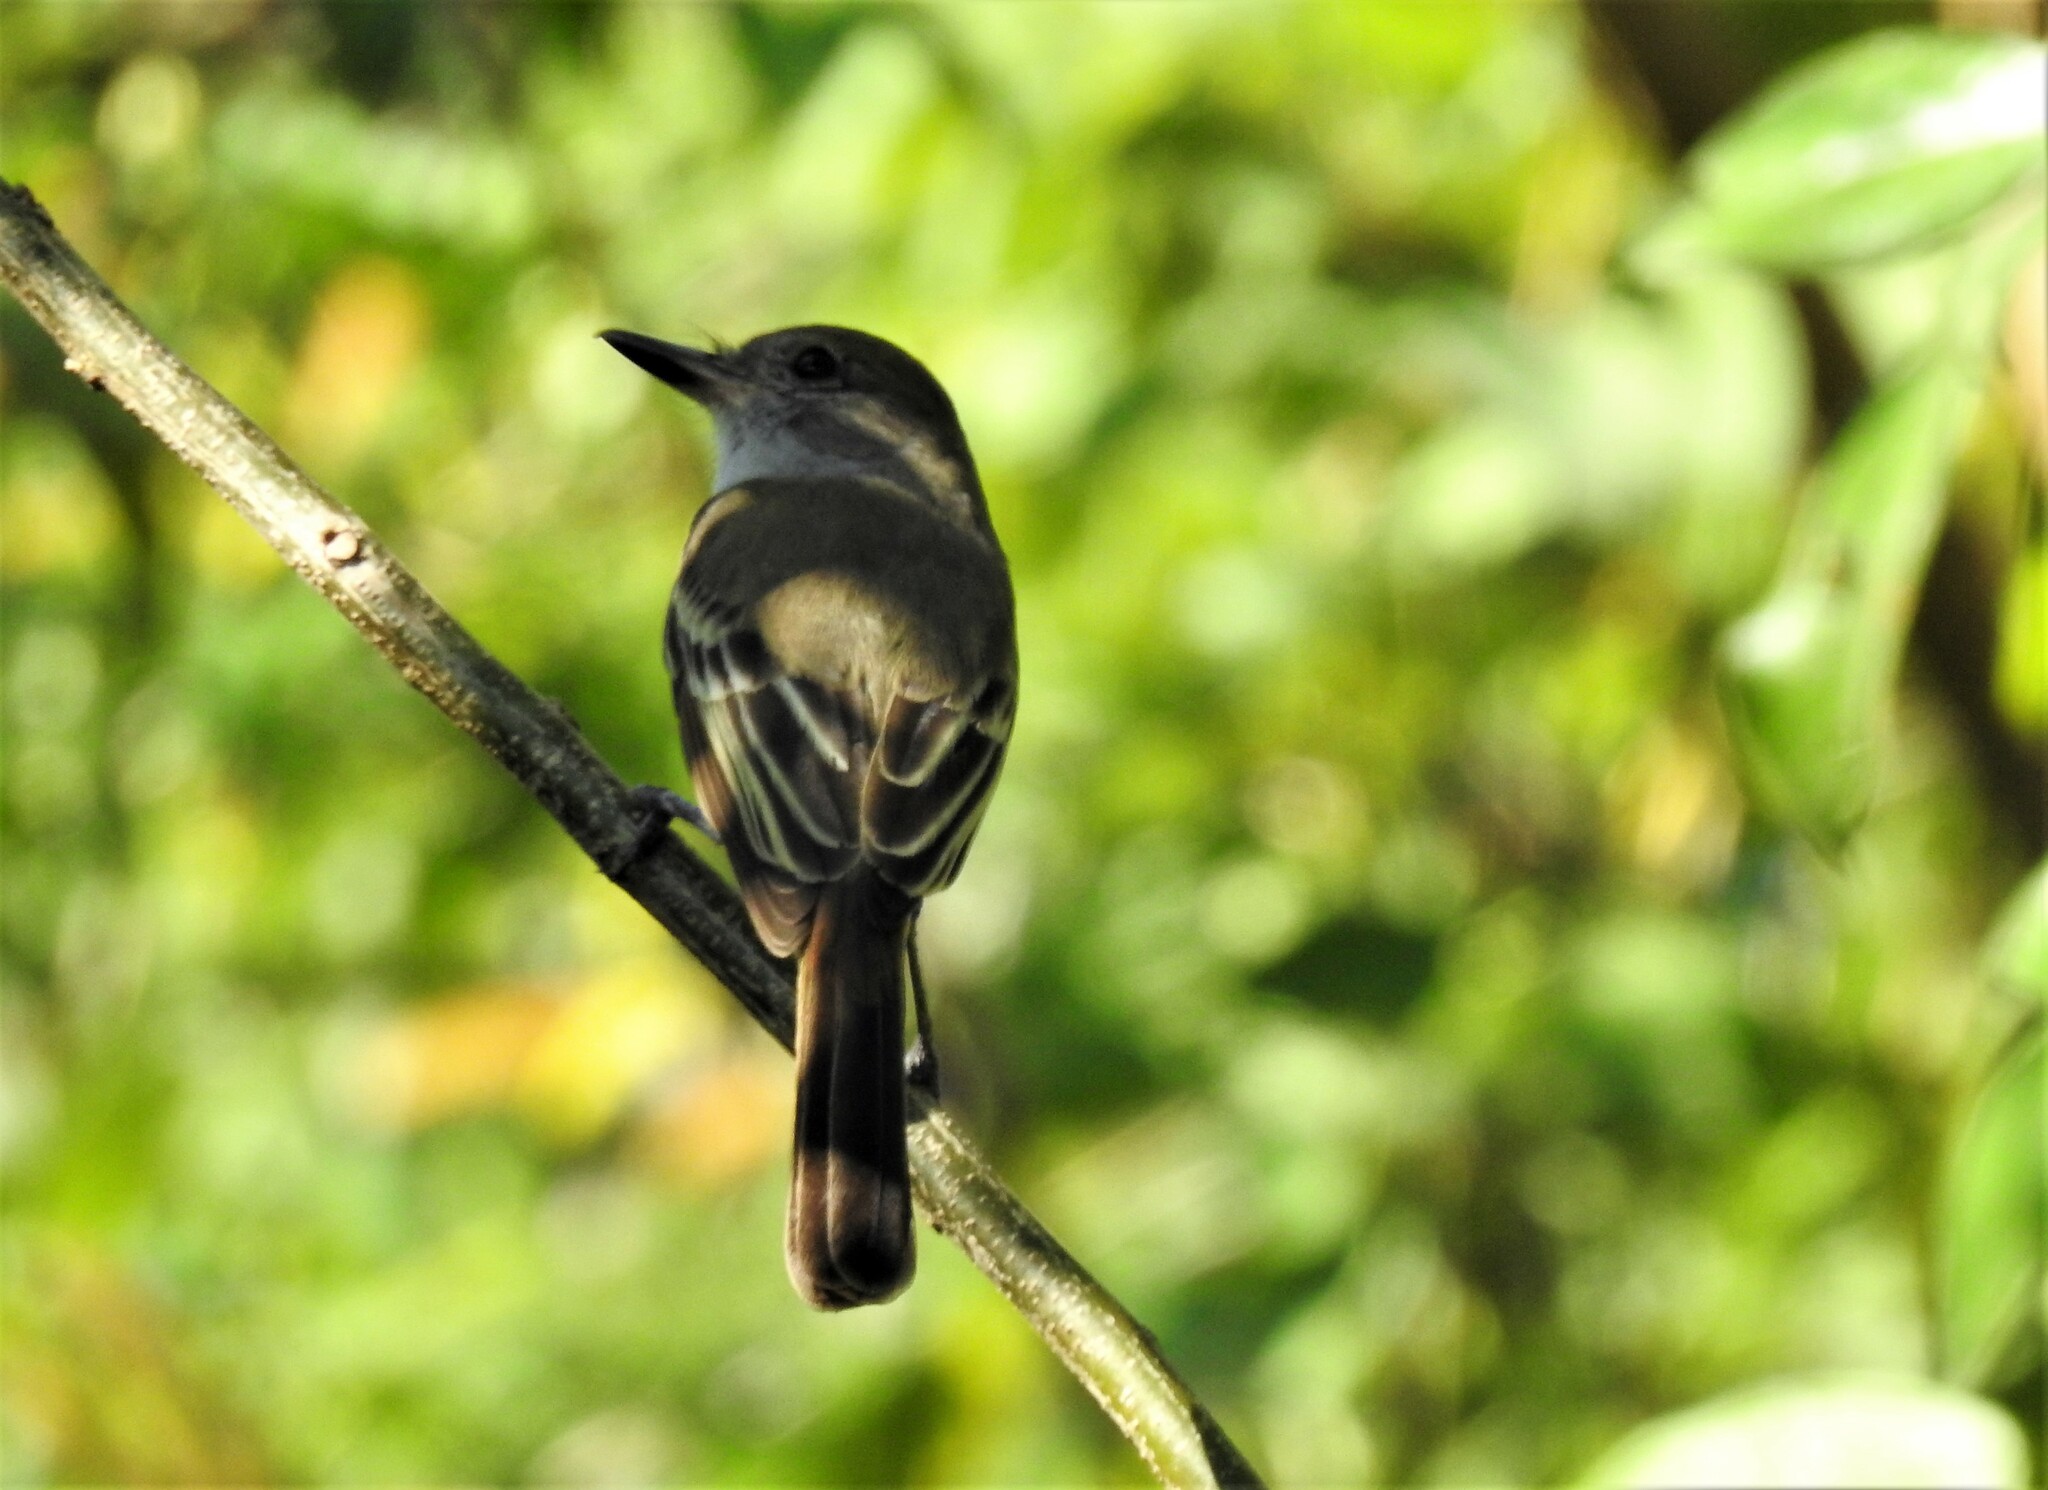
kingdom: Animalia
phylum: Chordata
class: Aves
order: Passeriformes
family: Tyrannidae
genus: Myiarchus
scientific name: Myiarchus tyrannulus
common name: Brown-crested flycatcher
